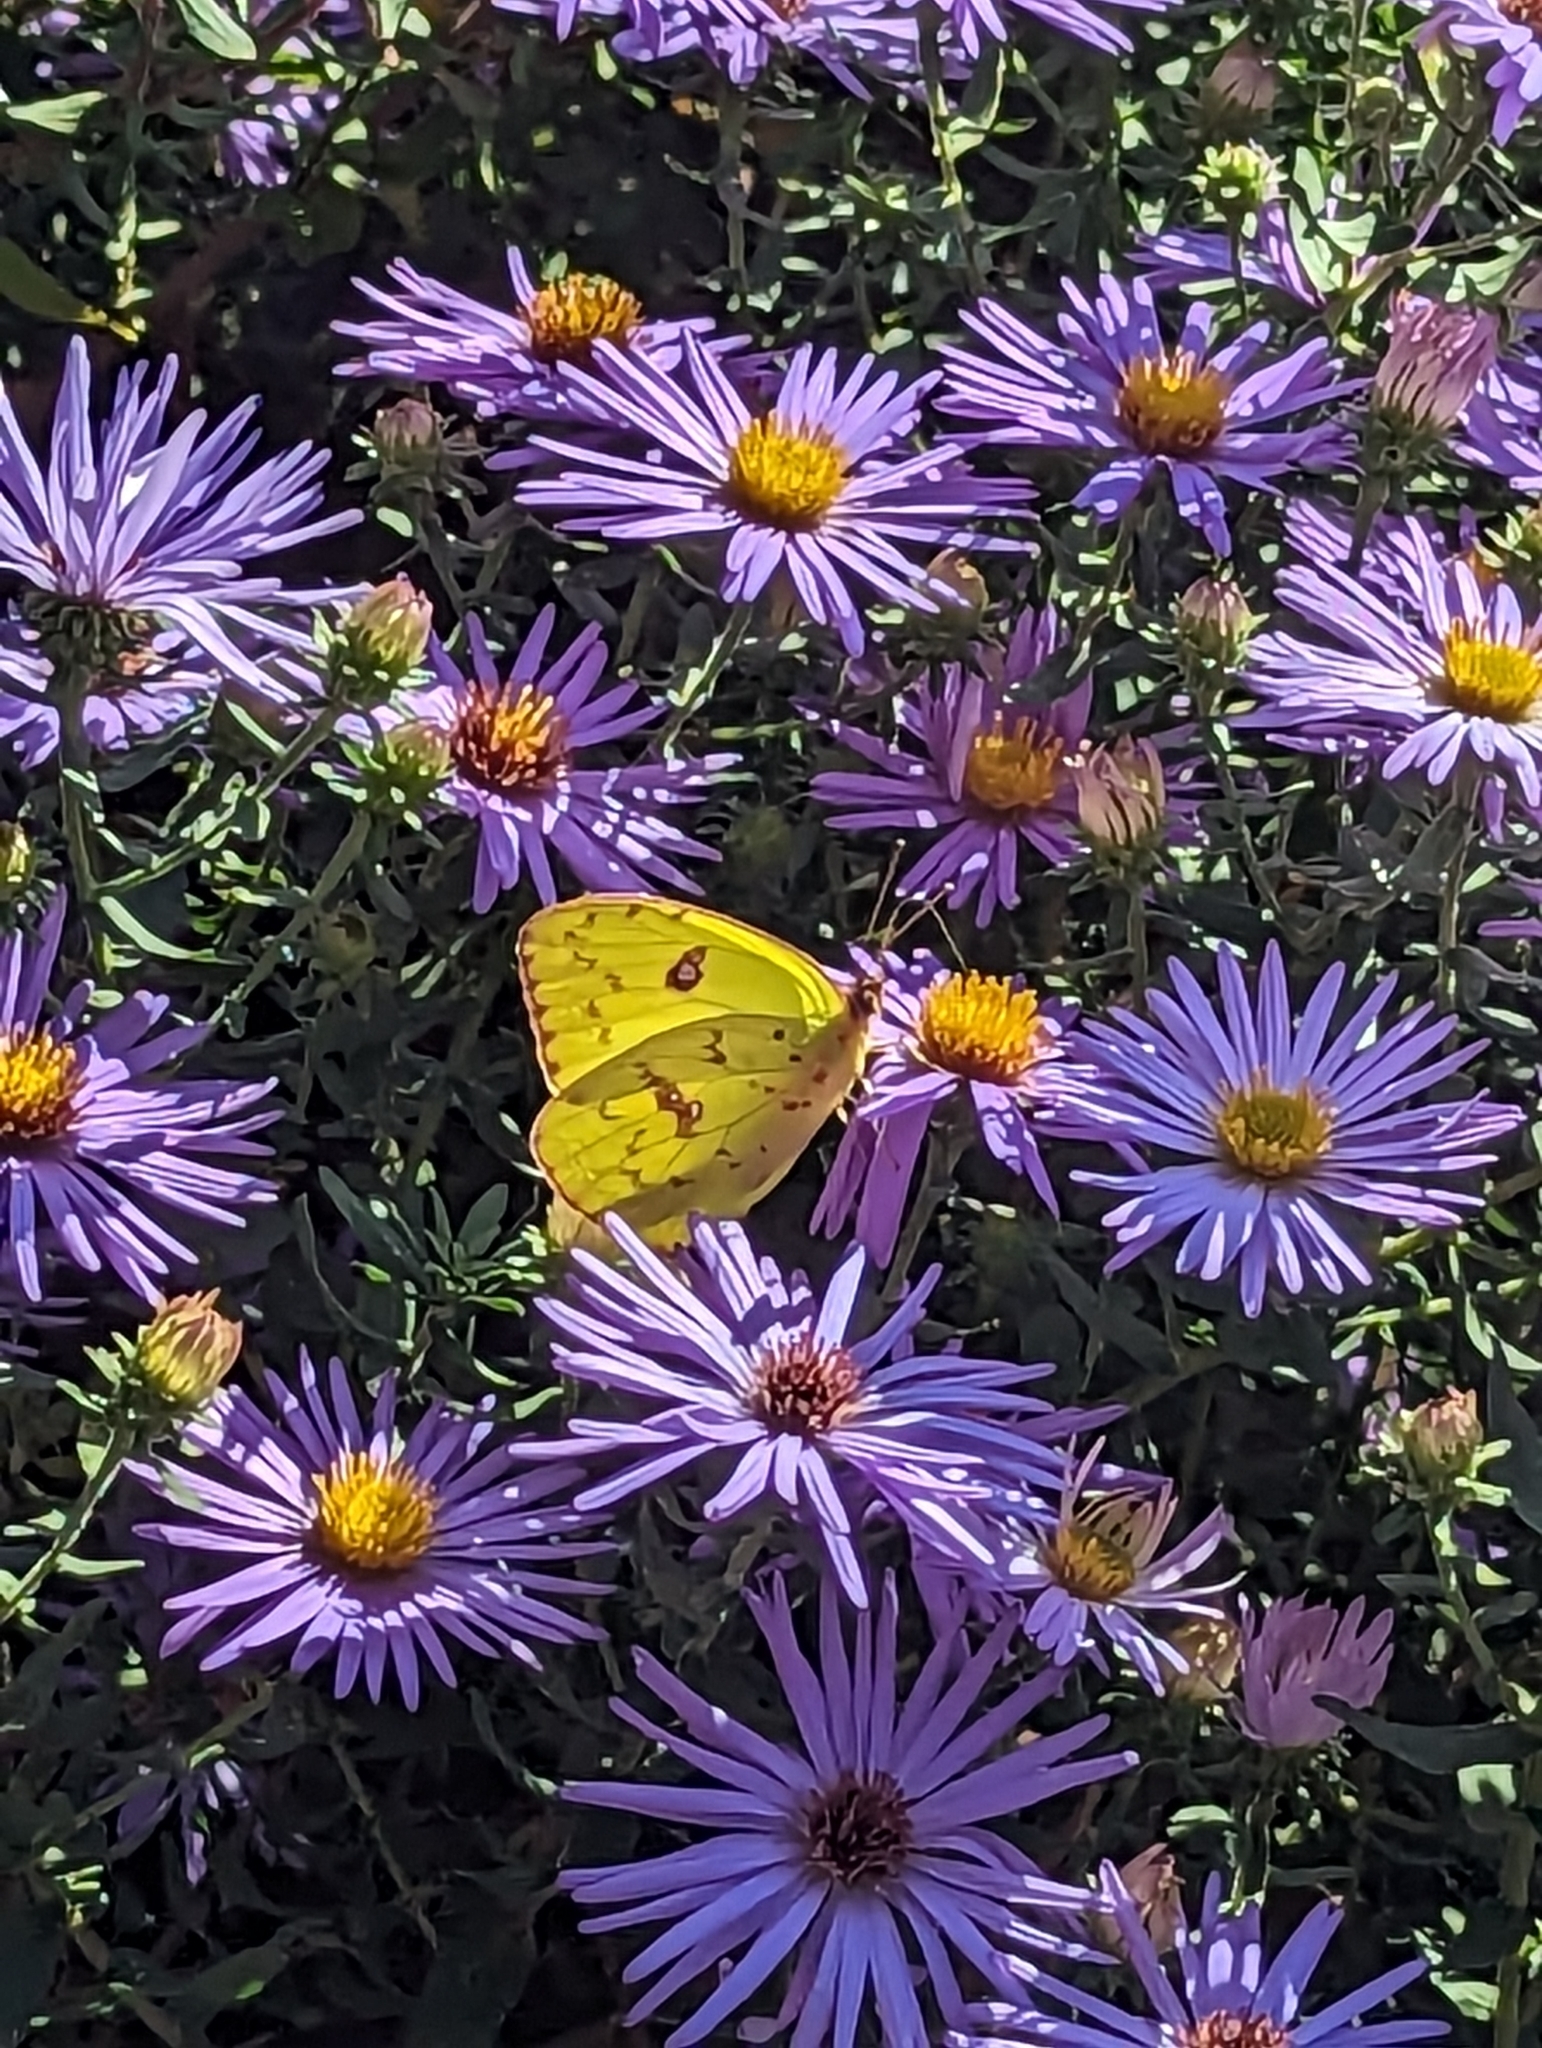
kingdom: Animalia
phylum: Arthropoda
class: Insecta
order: Lepidoptera
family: Pieridae
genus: Phoebis
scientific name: Phoebis sennae
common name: Cloudless sulphur
